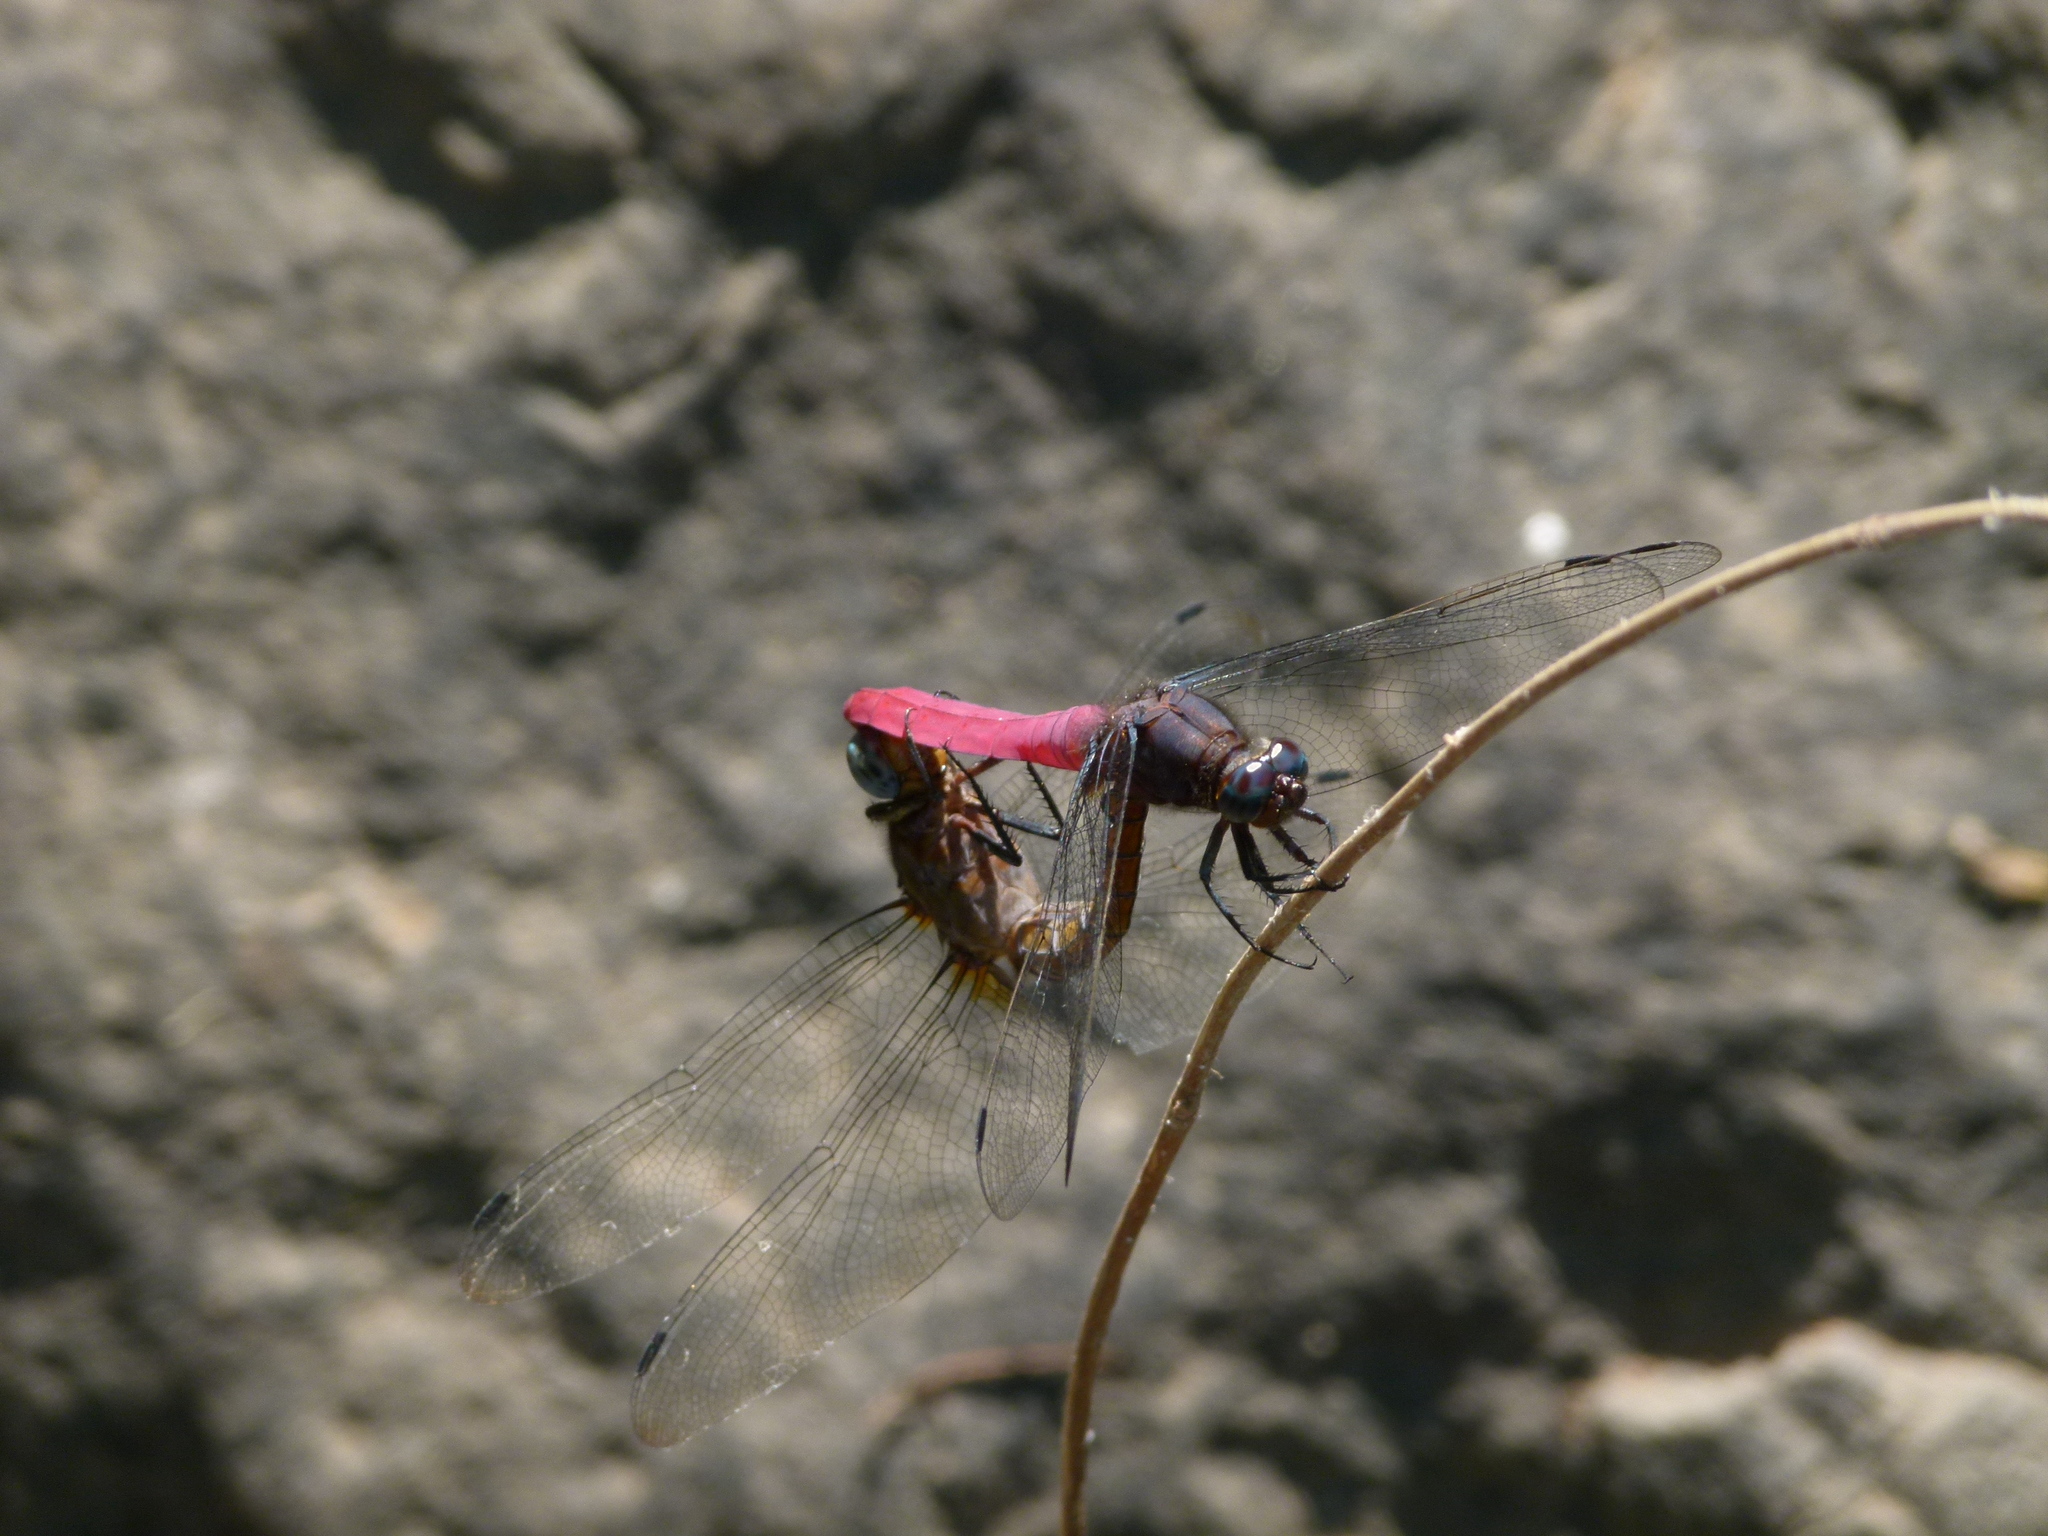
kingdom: Animalia
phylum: Arthropoda
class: Insecta
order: Odonata
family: Libellulidae
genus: Orthetrum
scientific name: Orthetrum pruinosum
